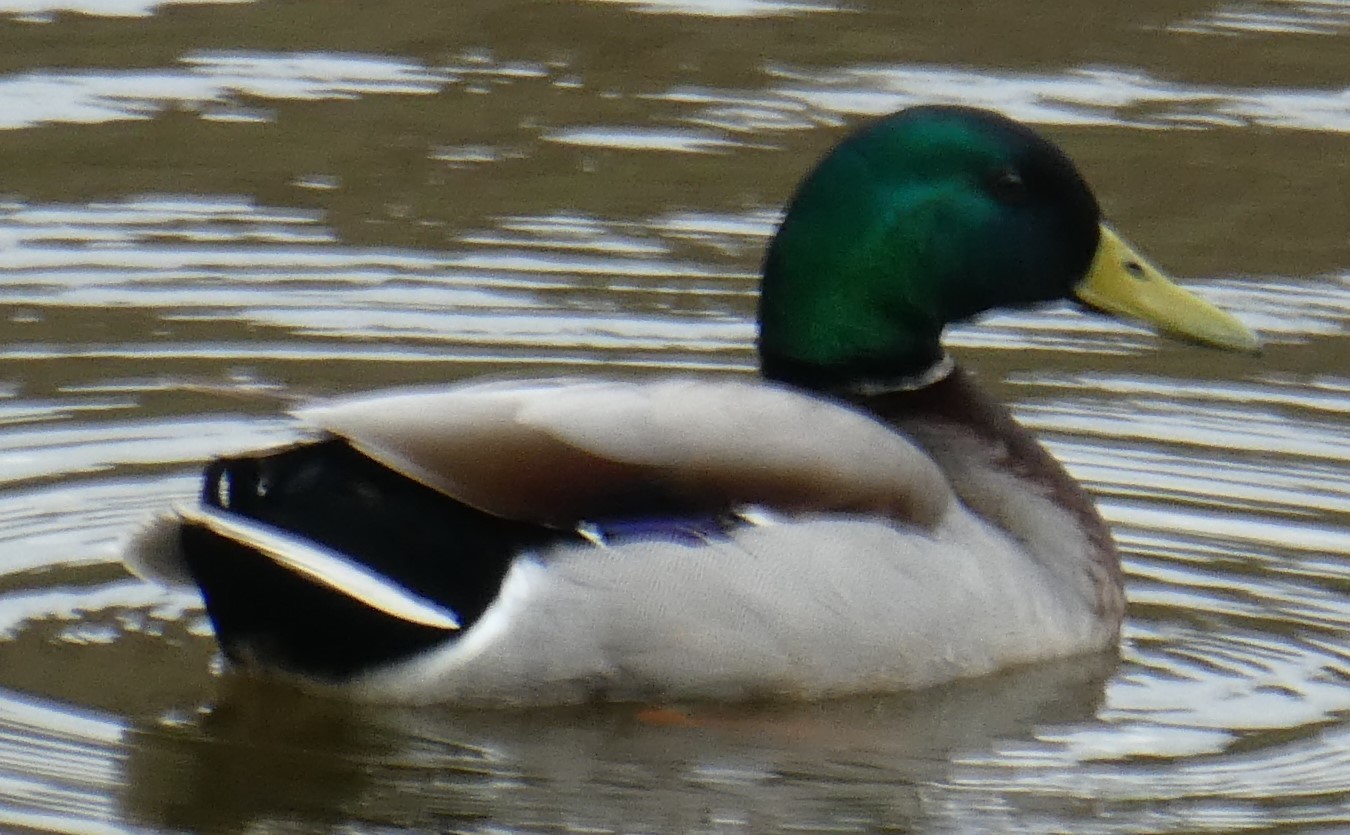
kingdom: Animalia
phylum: Chordata
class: Aves
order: Anseriformes
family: Anatidae
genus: Anas
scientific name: Anas platyrhynchos
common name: Mallard
